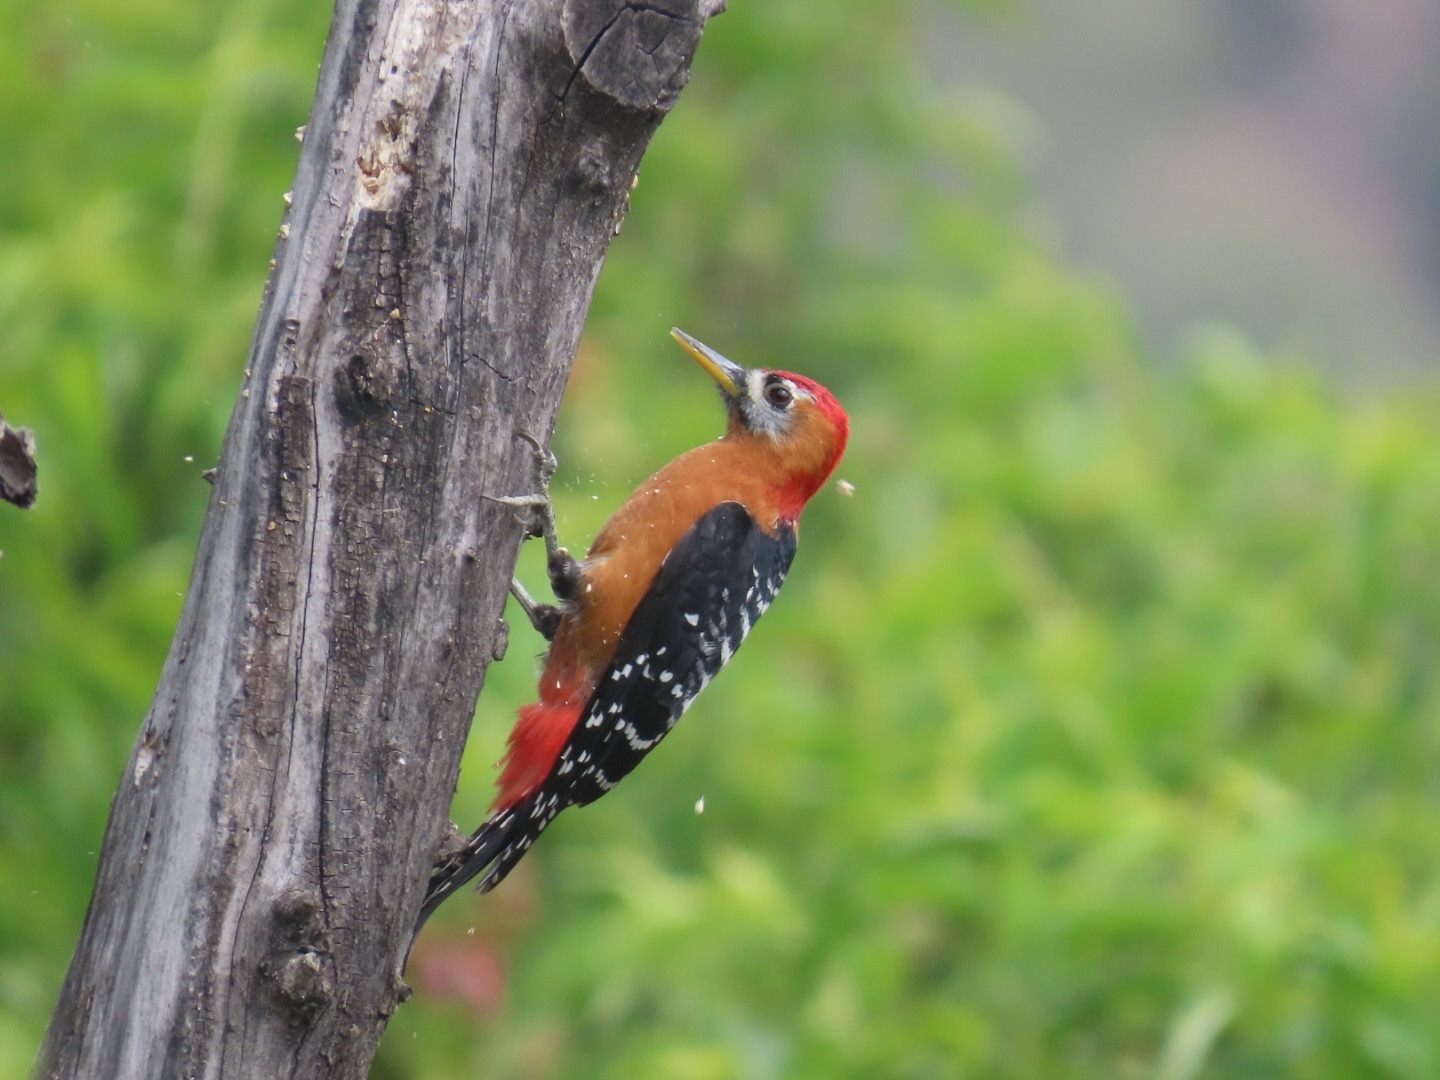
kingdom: Animalia
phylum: Chordata
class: Aves
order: Piciformes
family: Picidae
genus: Dendrocopos
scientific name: Dendrocopos hyperythrus
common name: Rufous-bellied woodpecker
